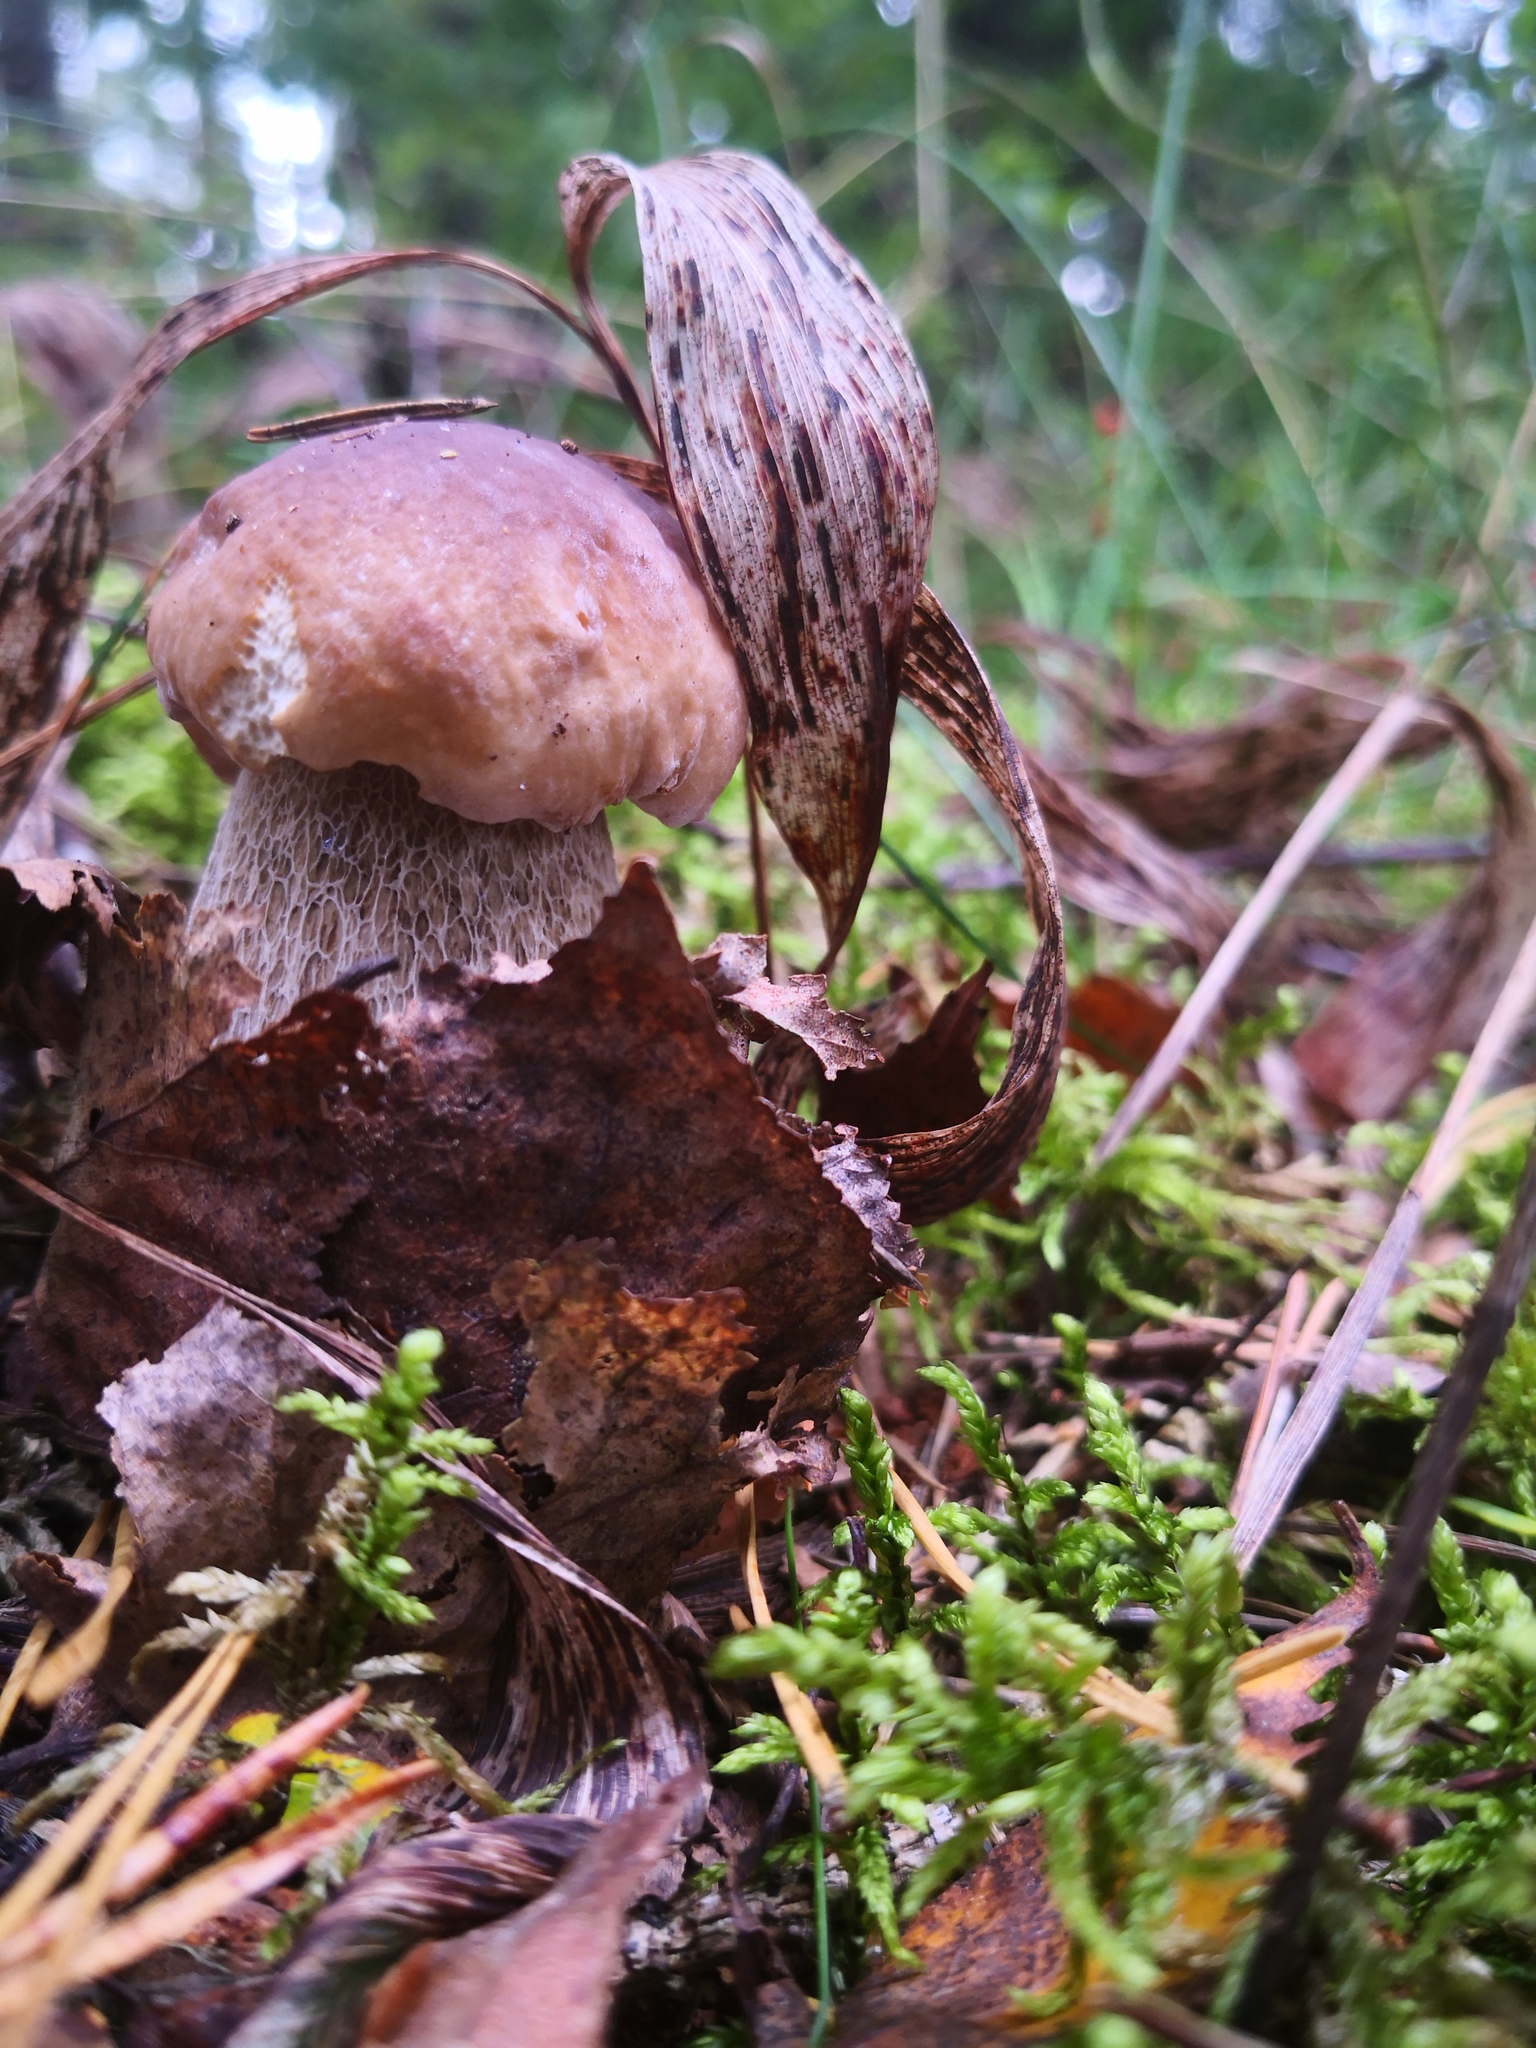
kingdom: Fungi
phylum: Basidiomycota
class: Agaricomycetes
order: Boletales
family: Boletaceae
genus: Boletus
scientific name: Boletus edulis
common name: Cep
